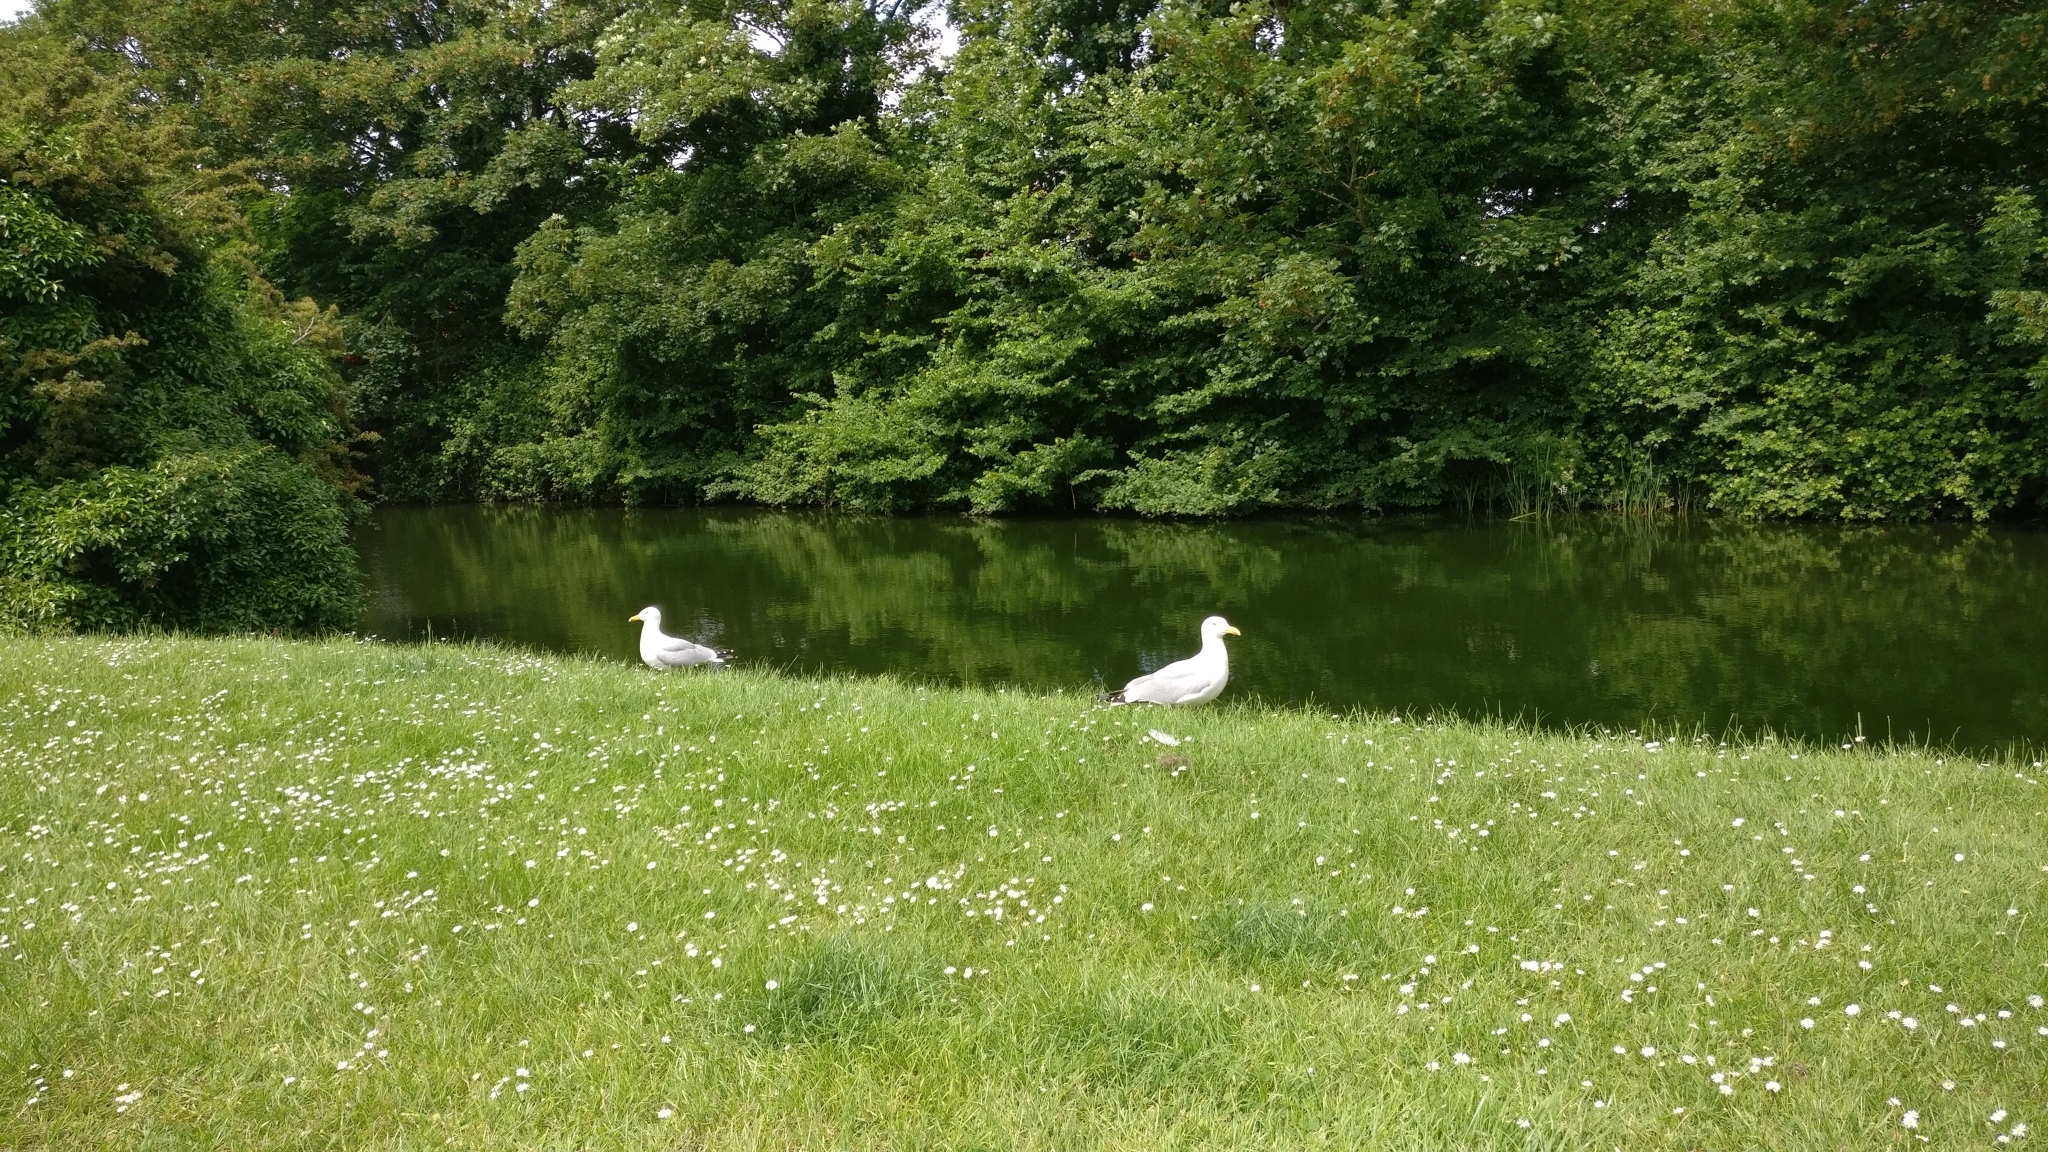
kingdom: Animalia
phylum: Chordata
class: Aves
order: Charadriiformes
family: Laridae
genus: Larus
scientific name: Larus argentatus
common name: Herring gull
